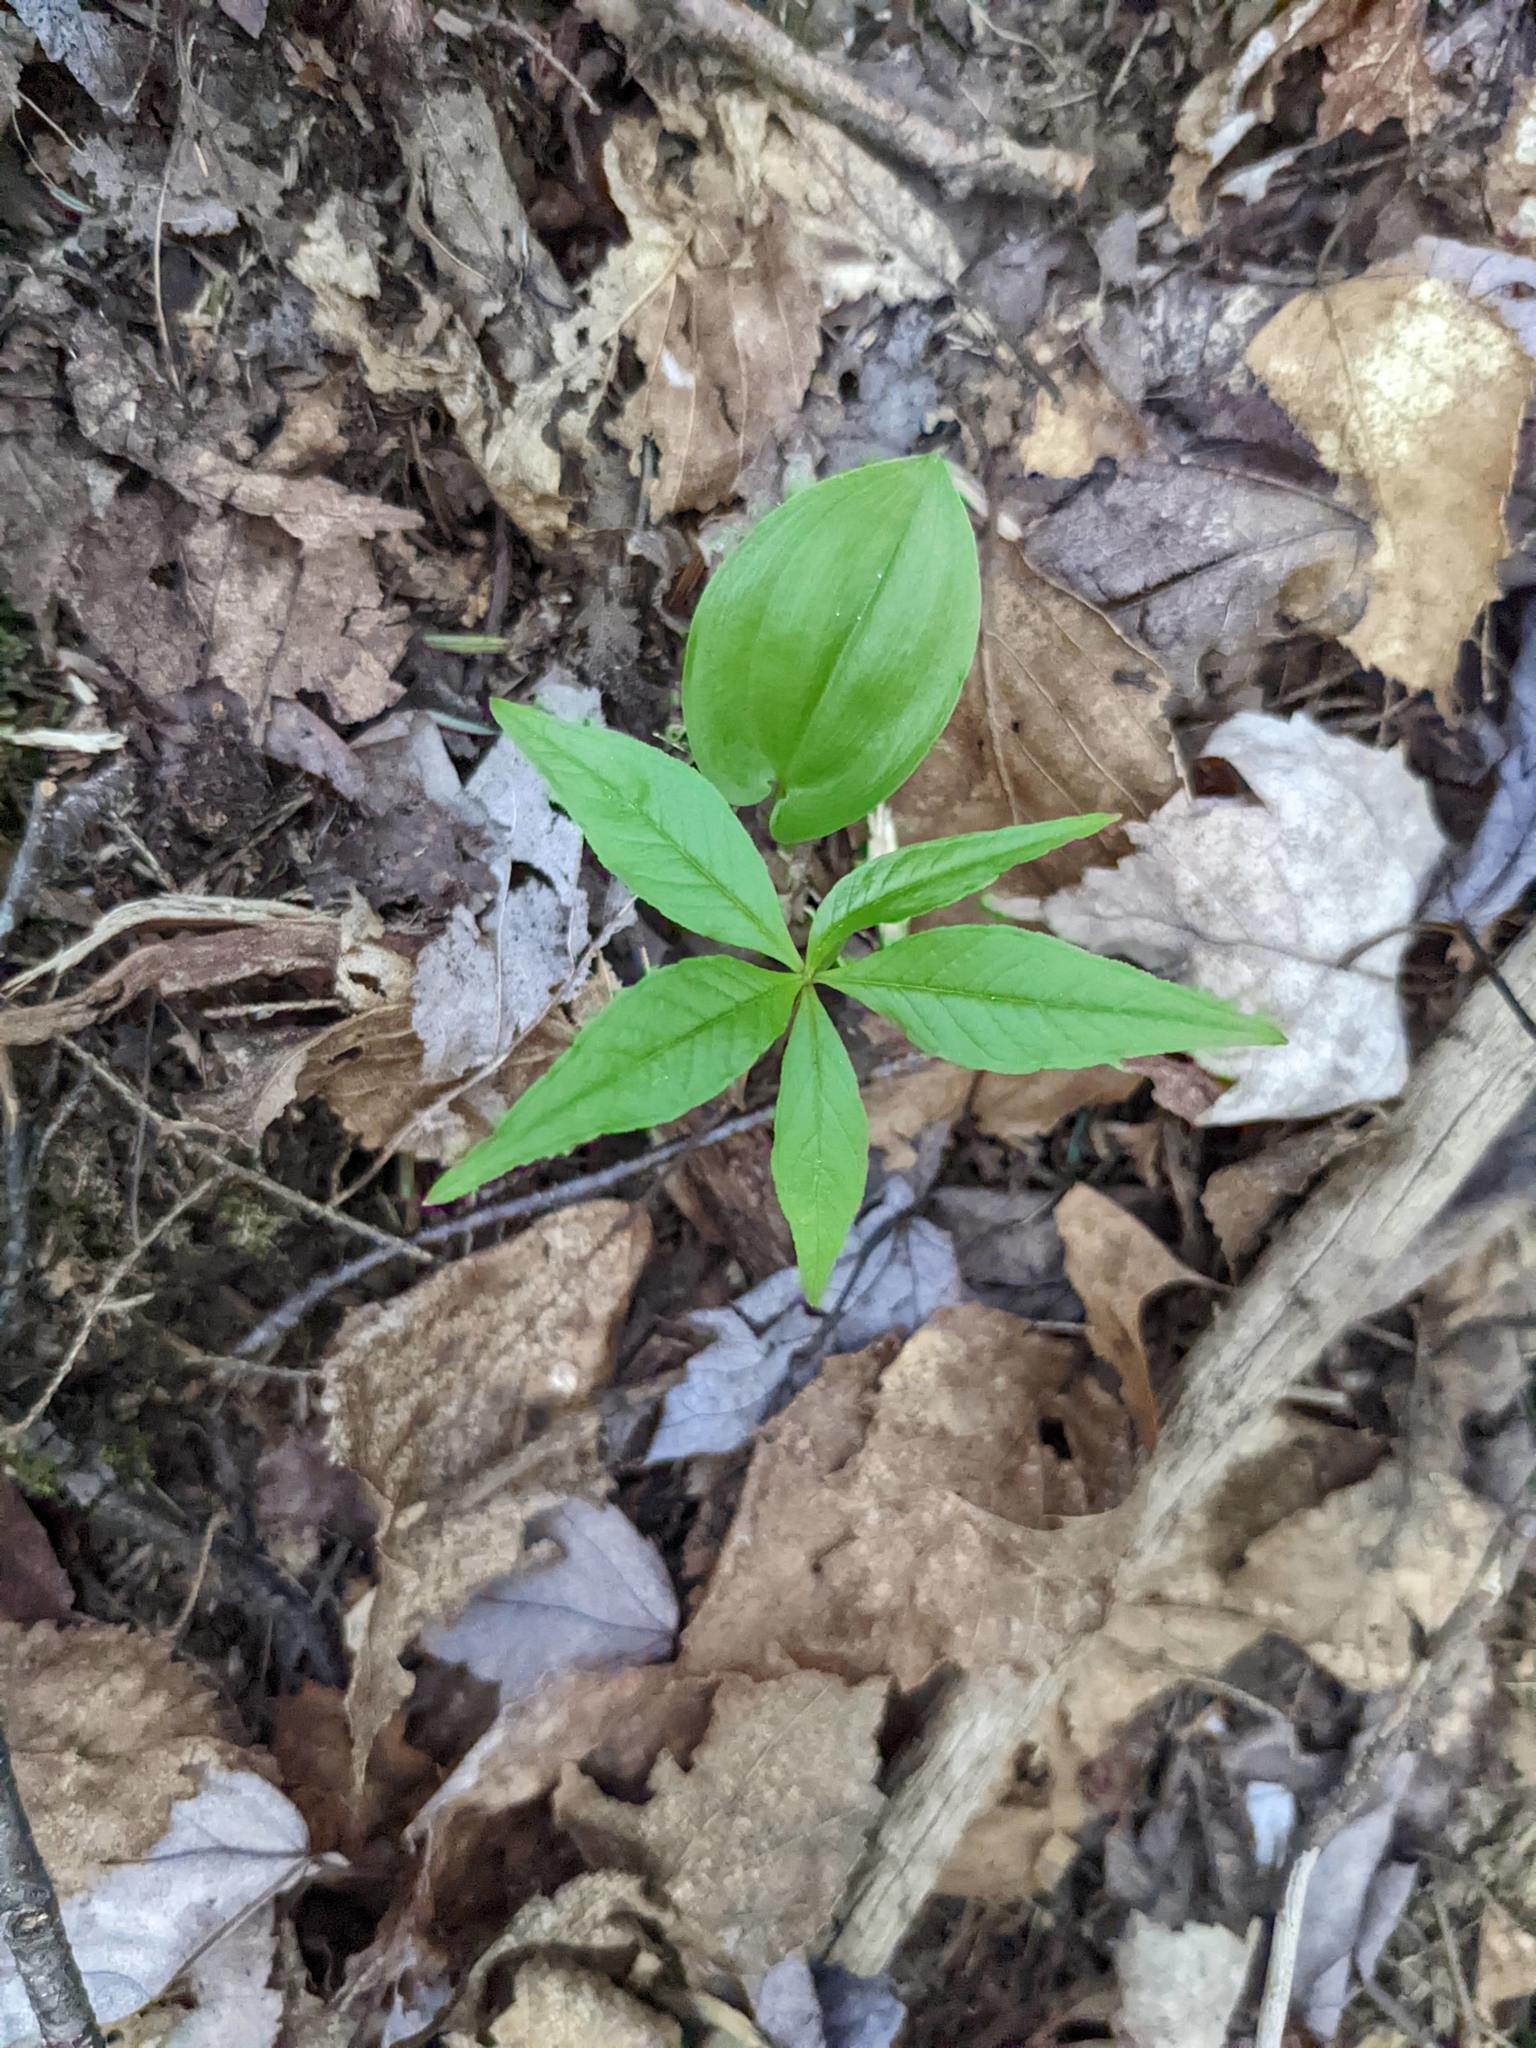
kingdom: Plantae
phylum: Tracheophyta
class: Liliopsida
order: Asparagales
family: Asparagaceae
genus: Maianthemum
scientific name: Maianthemum canadense
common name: False lily-of-the-valley
